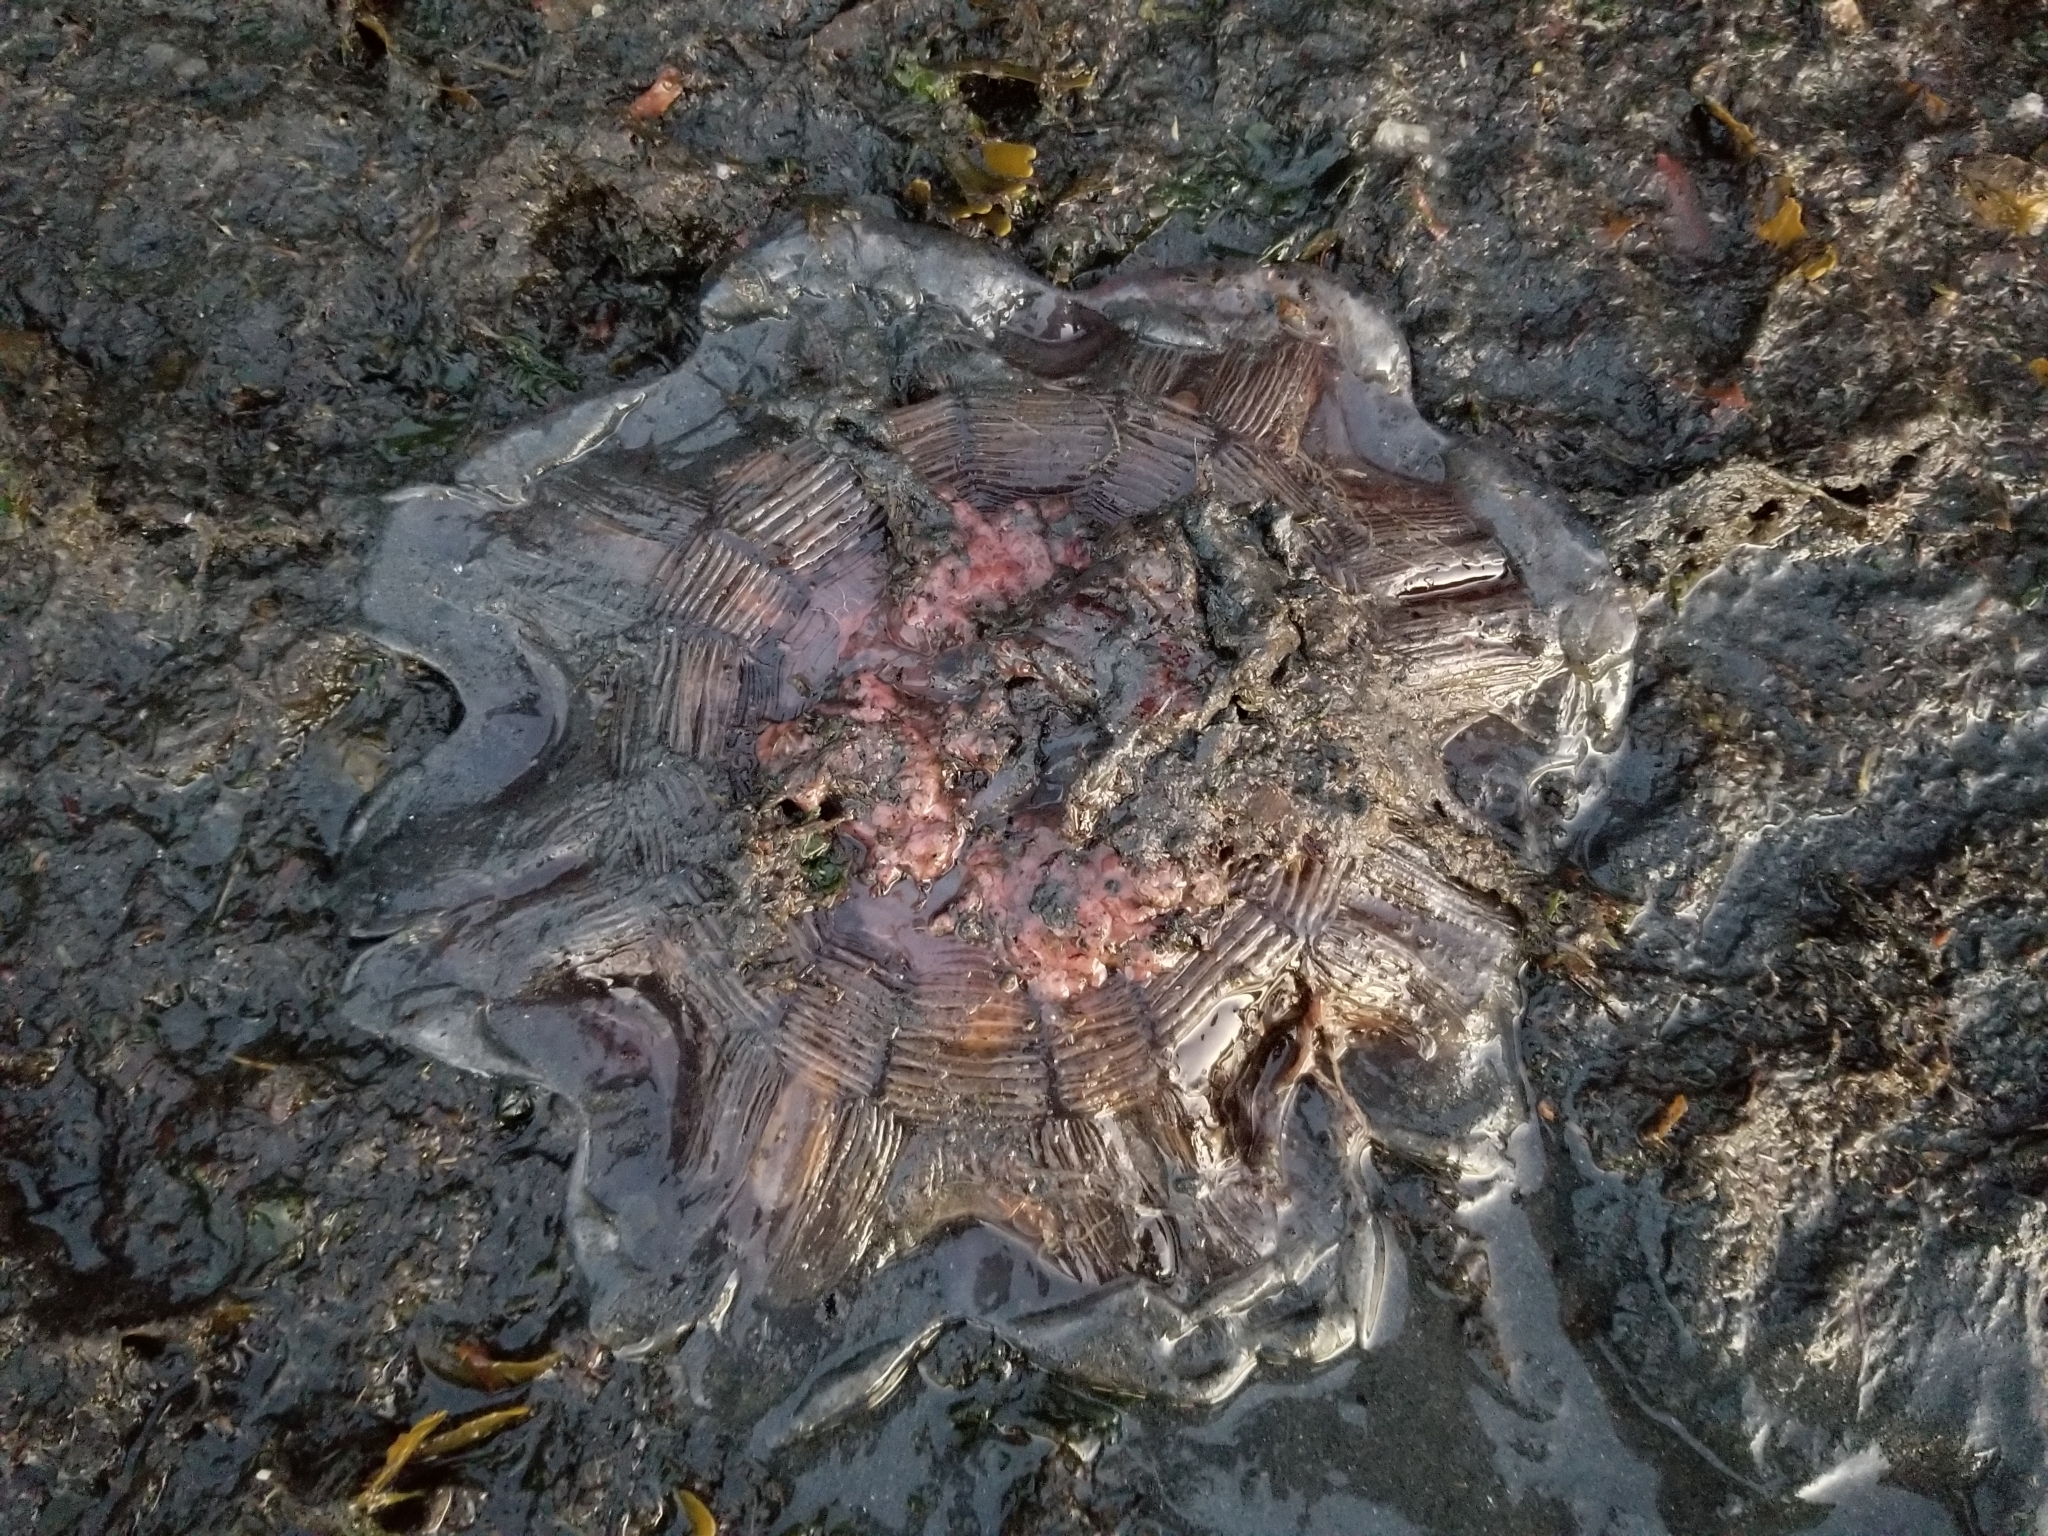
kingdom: Animalia
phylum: Cnidaria
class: Scyphozoa
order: Semaeostomeae
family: Cyaneidae
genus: Cyanea
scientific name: Cyanea ferruginea
